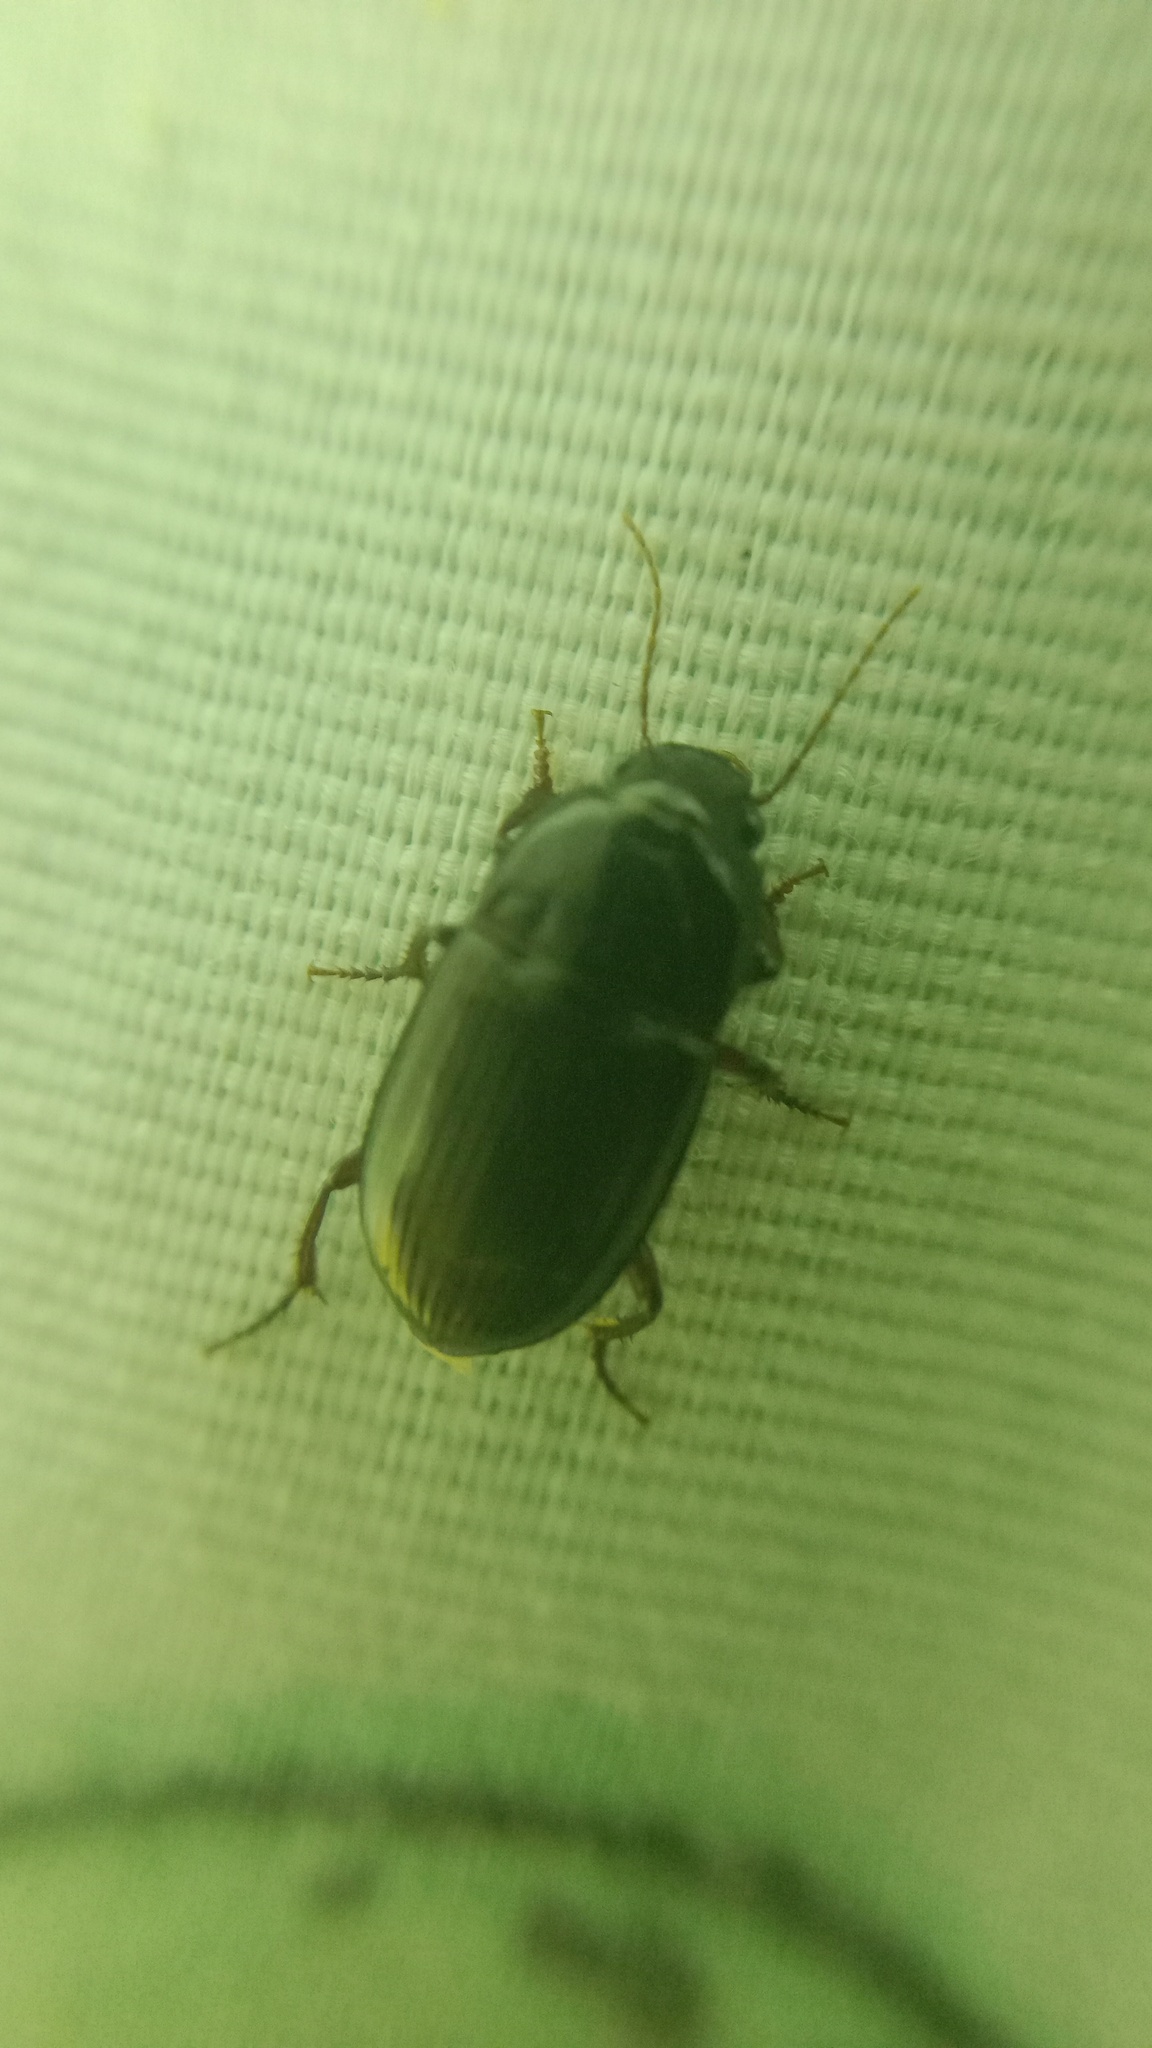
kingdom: Animalia
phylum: Arthropoda
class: Insecta
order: Coleoptera
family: Carabidae
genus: Amara
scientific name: Amara
